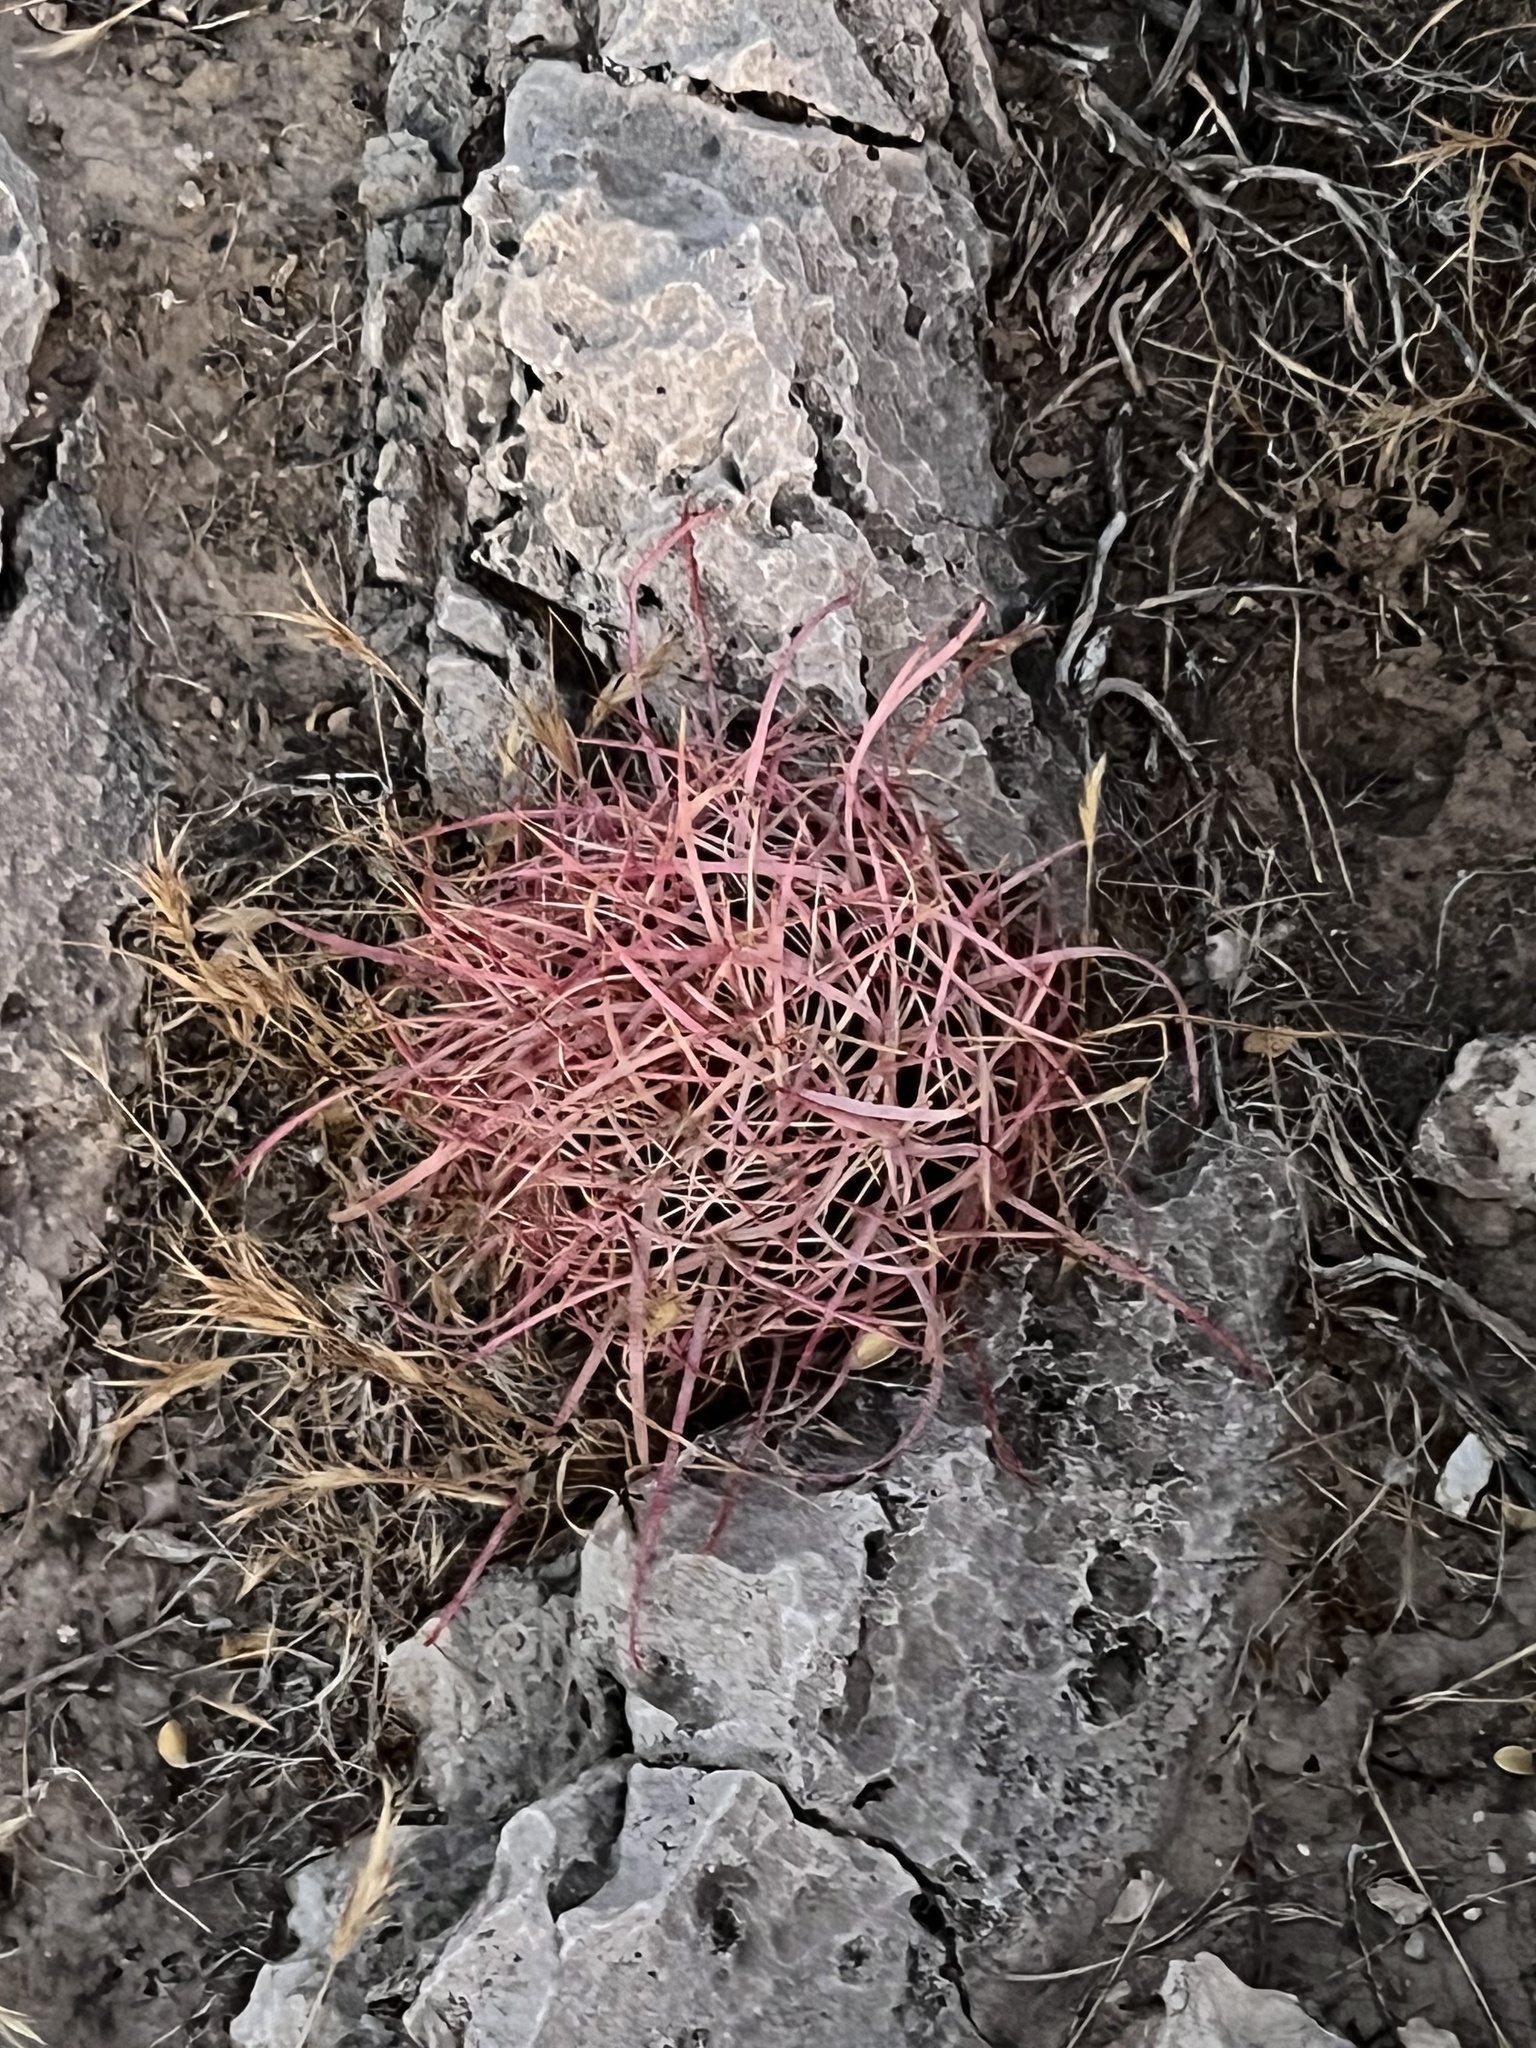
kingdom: Plantae
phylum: Tracheophyta
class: Magnoliopsida
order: Caryophyllales
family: Cactaceae
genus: Ferocactus
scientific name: Ferocactus cylindraceus
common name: California barrel cactus
